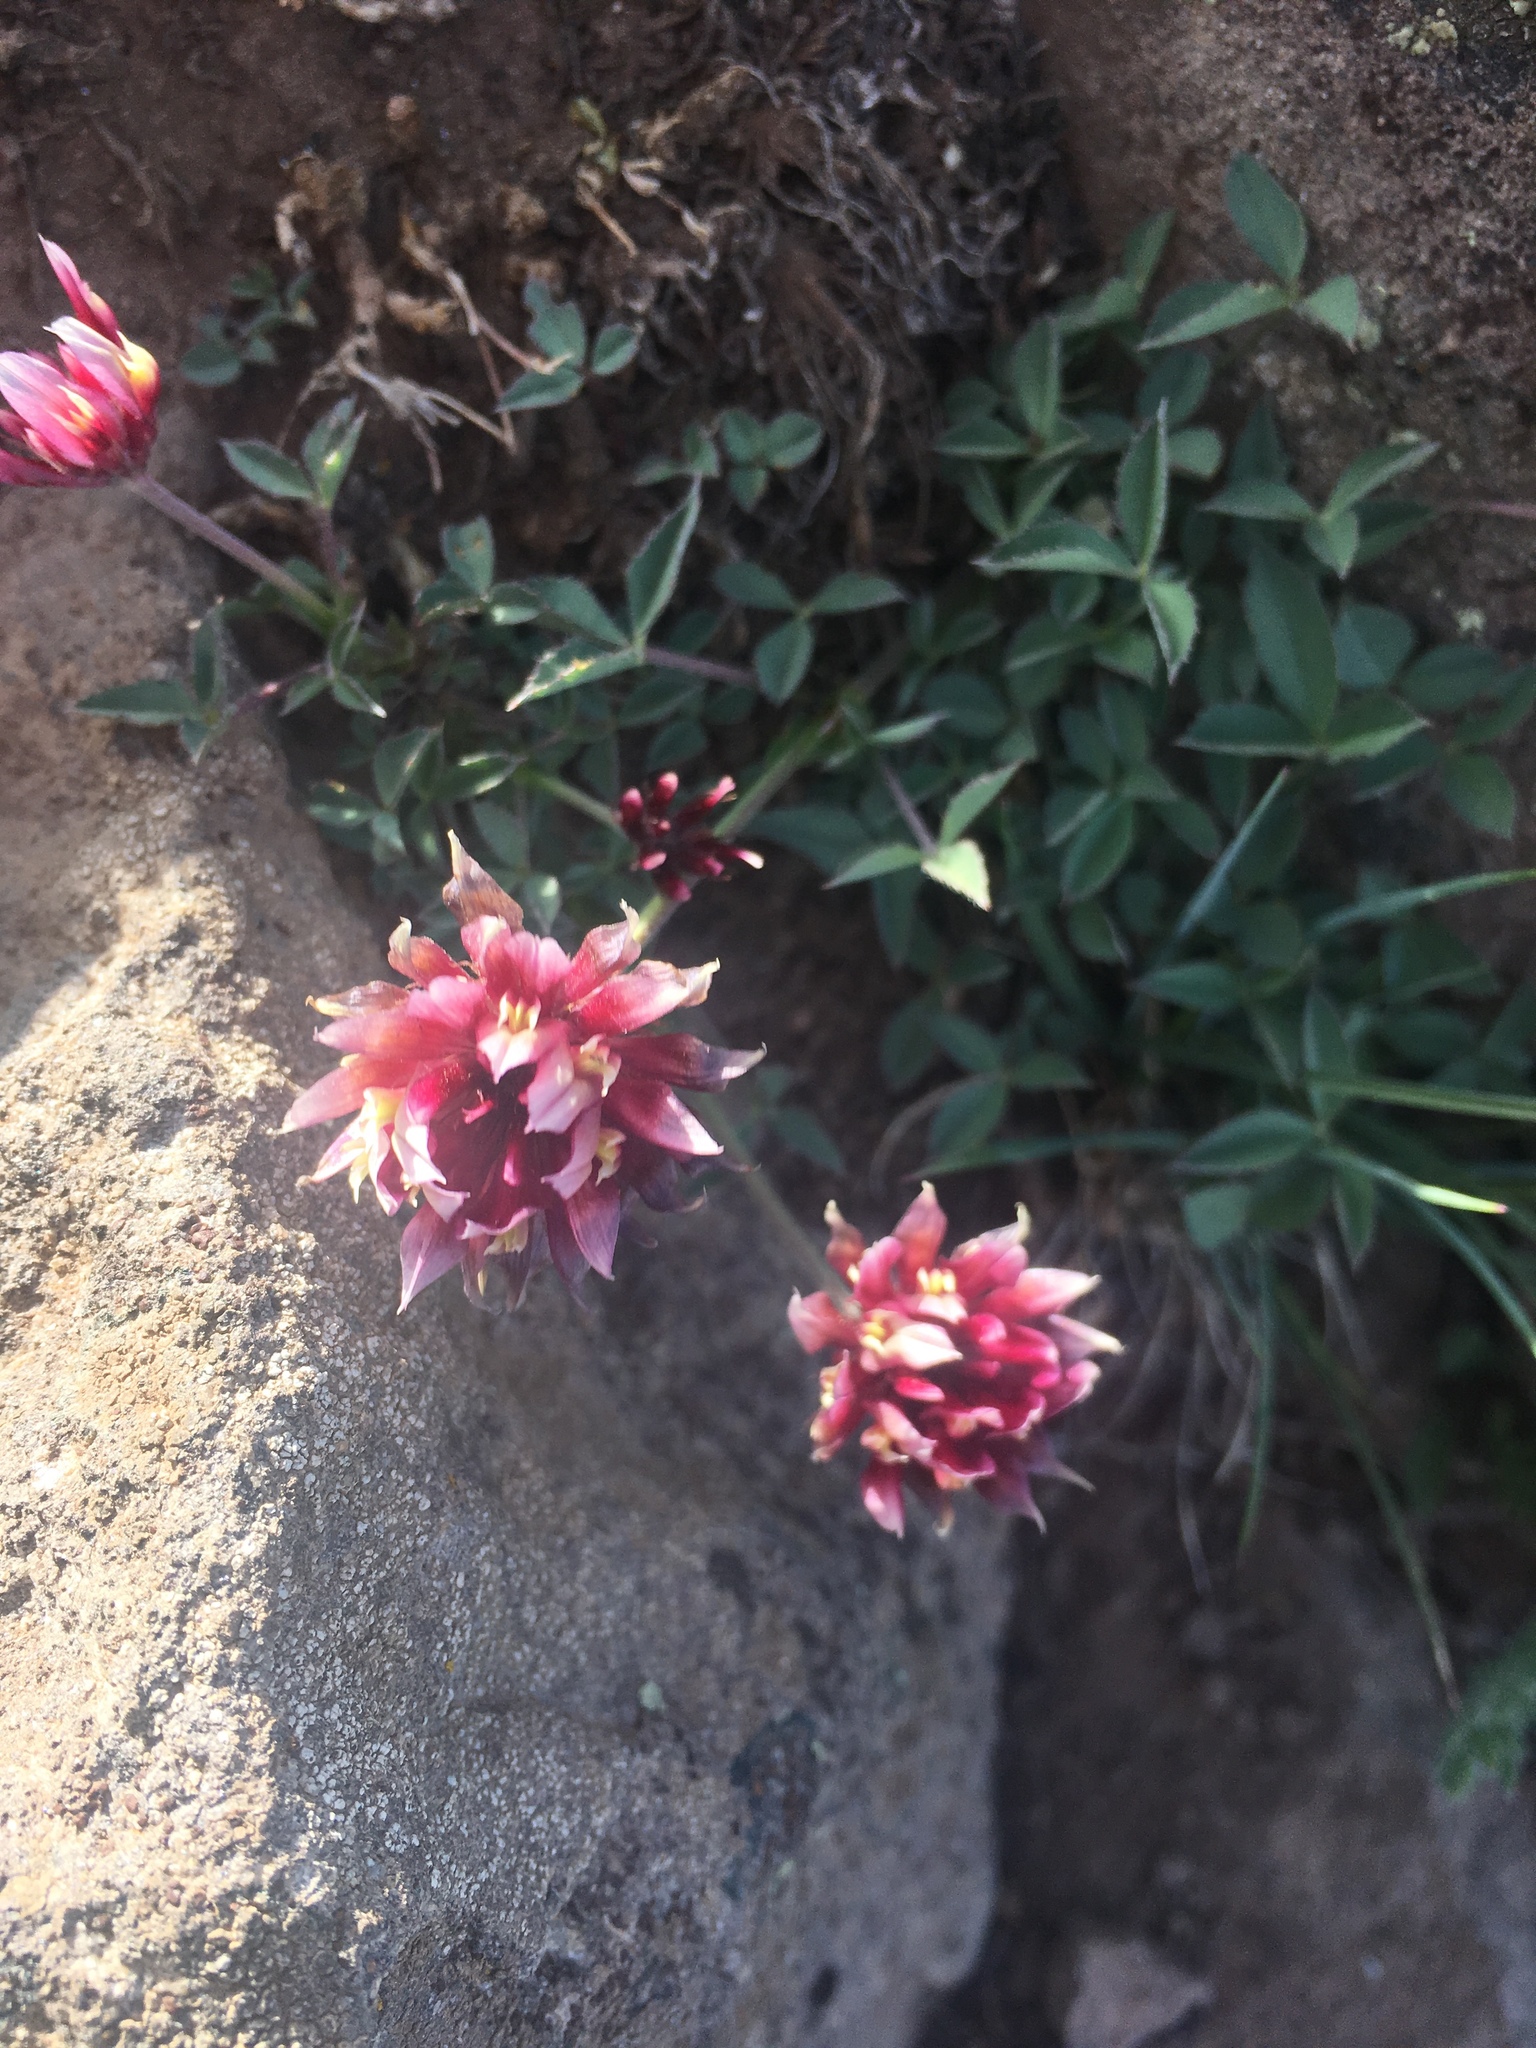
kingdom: Plantae
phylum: Tracheophyta
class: Magnoliopsida
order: Fabales
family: Fabaceae
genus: Trifolium
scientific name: Trifolium longipes
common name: Long-stalk clover
